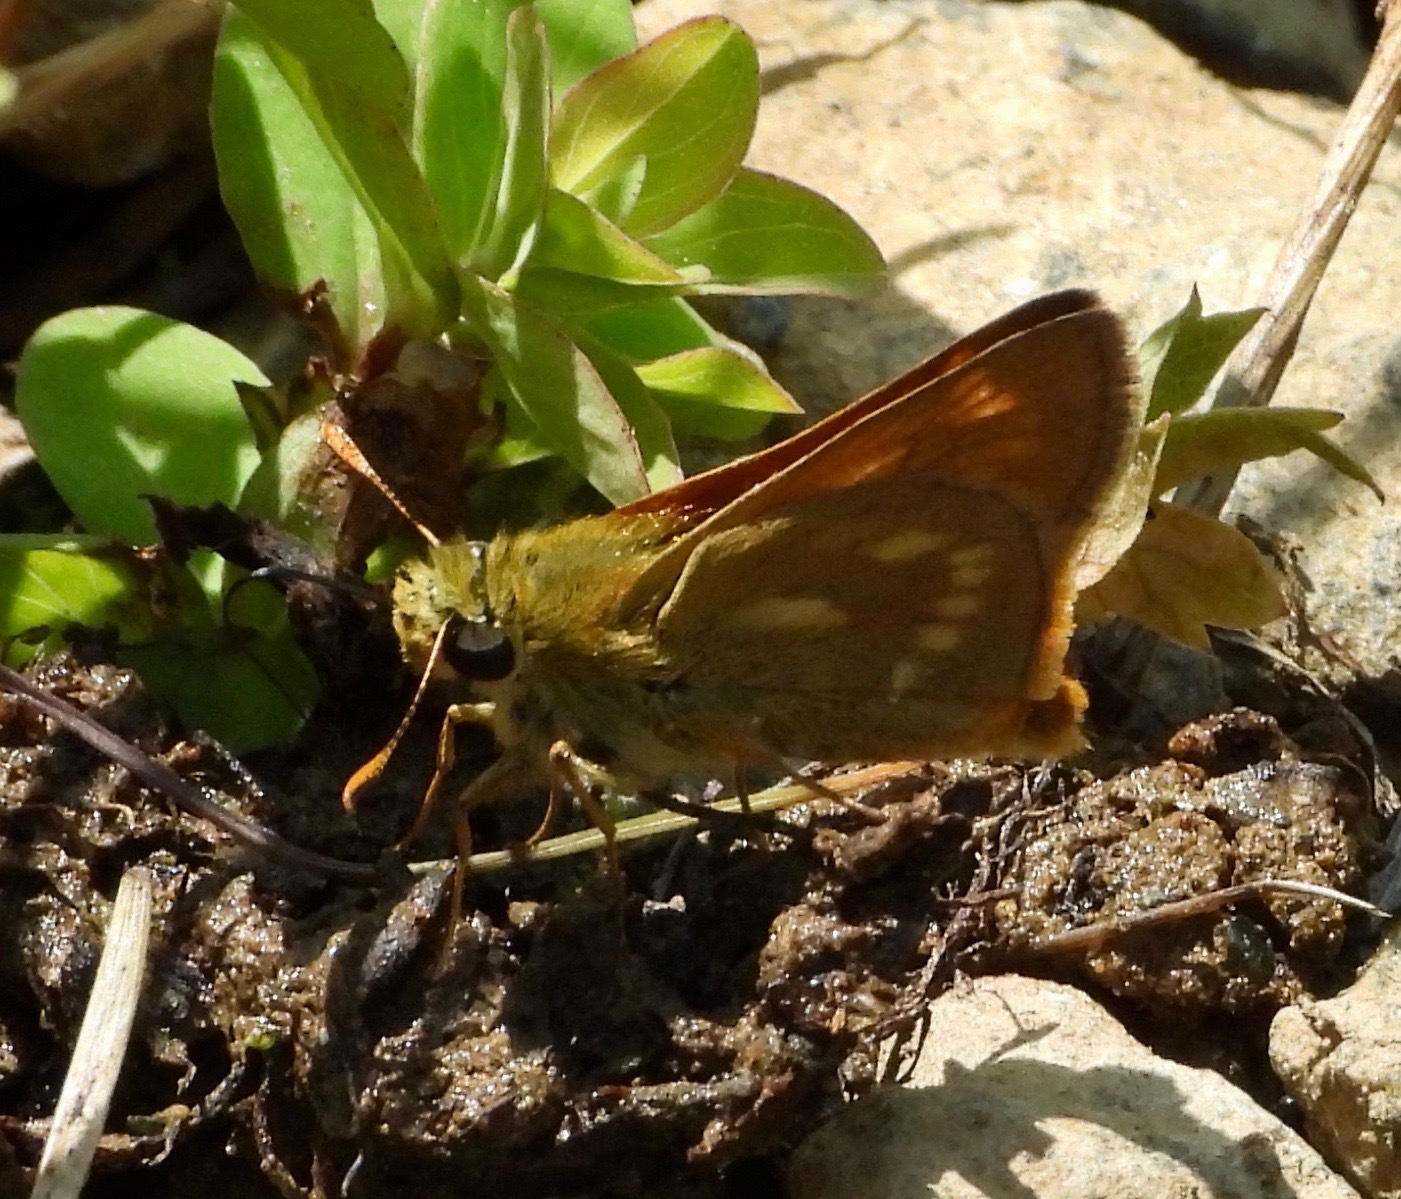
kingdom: Animalia
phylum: Arthropoda
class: Insecta
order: Lepidoptera
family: Hesperiidae
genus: Polites
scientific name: Polites mystic
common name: Long dash
